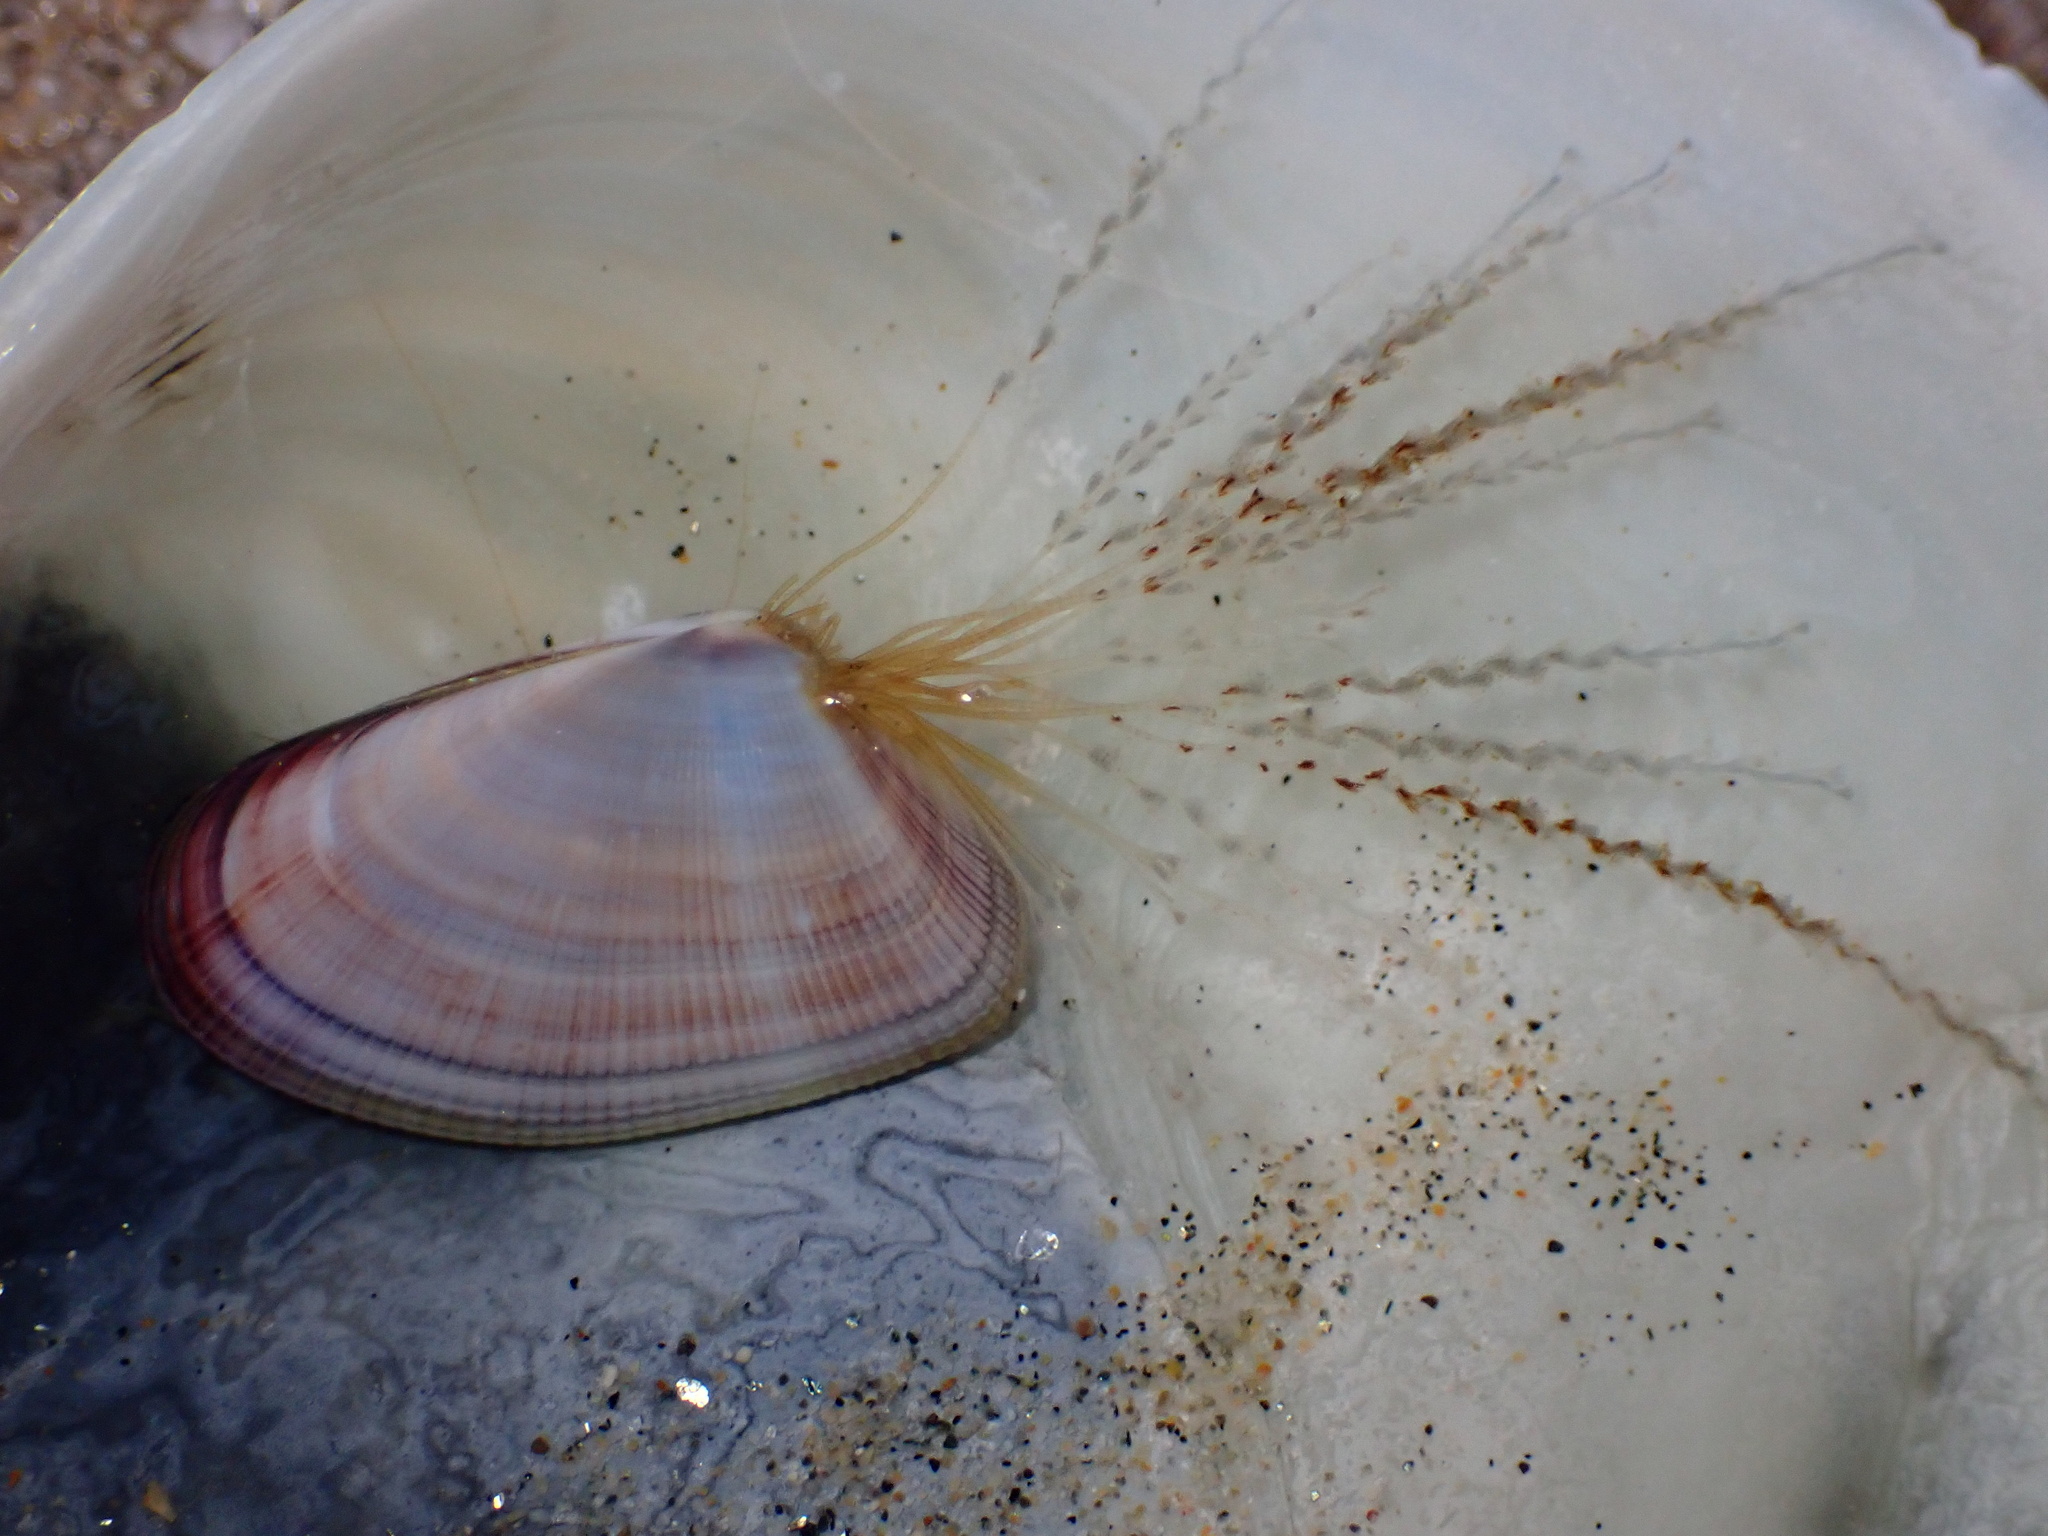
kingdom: Animalia
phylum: Cnidaria
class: Hydrozoa
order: Leptothecata
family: Lovenellidae
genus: Eucheilota
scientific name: Eucheilota bakeri
